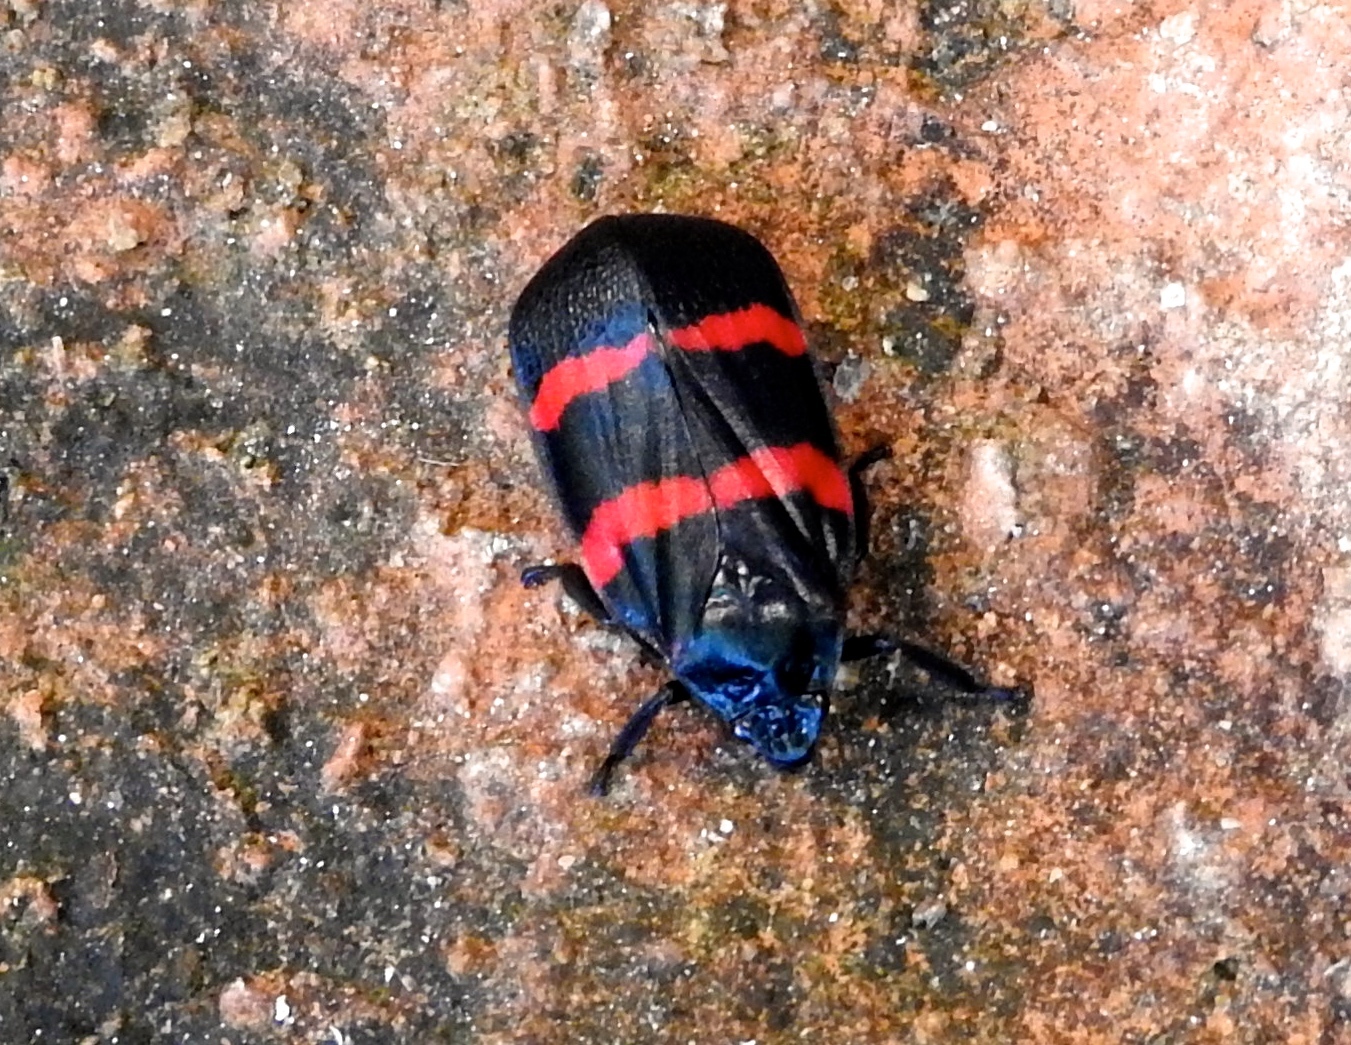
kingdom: Animalia
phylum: Arthropoda
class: Insecta
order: Hemiptera
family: Cercopidae
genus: Huaina
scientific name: Huaina inca
